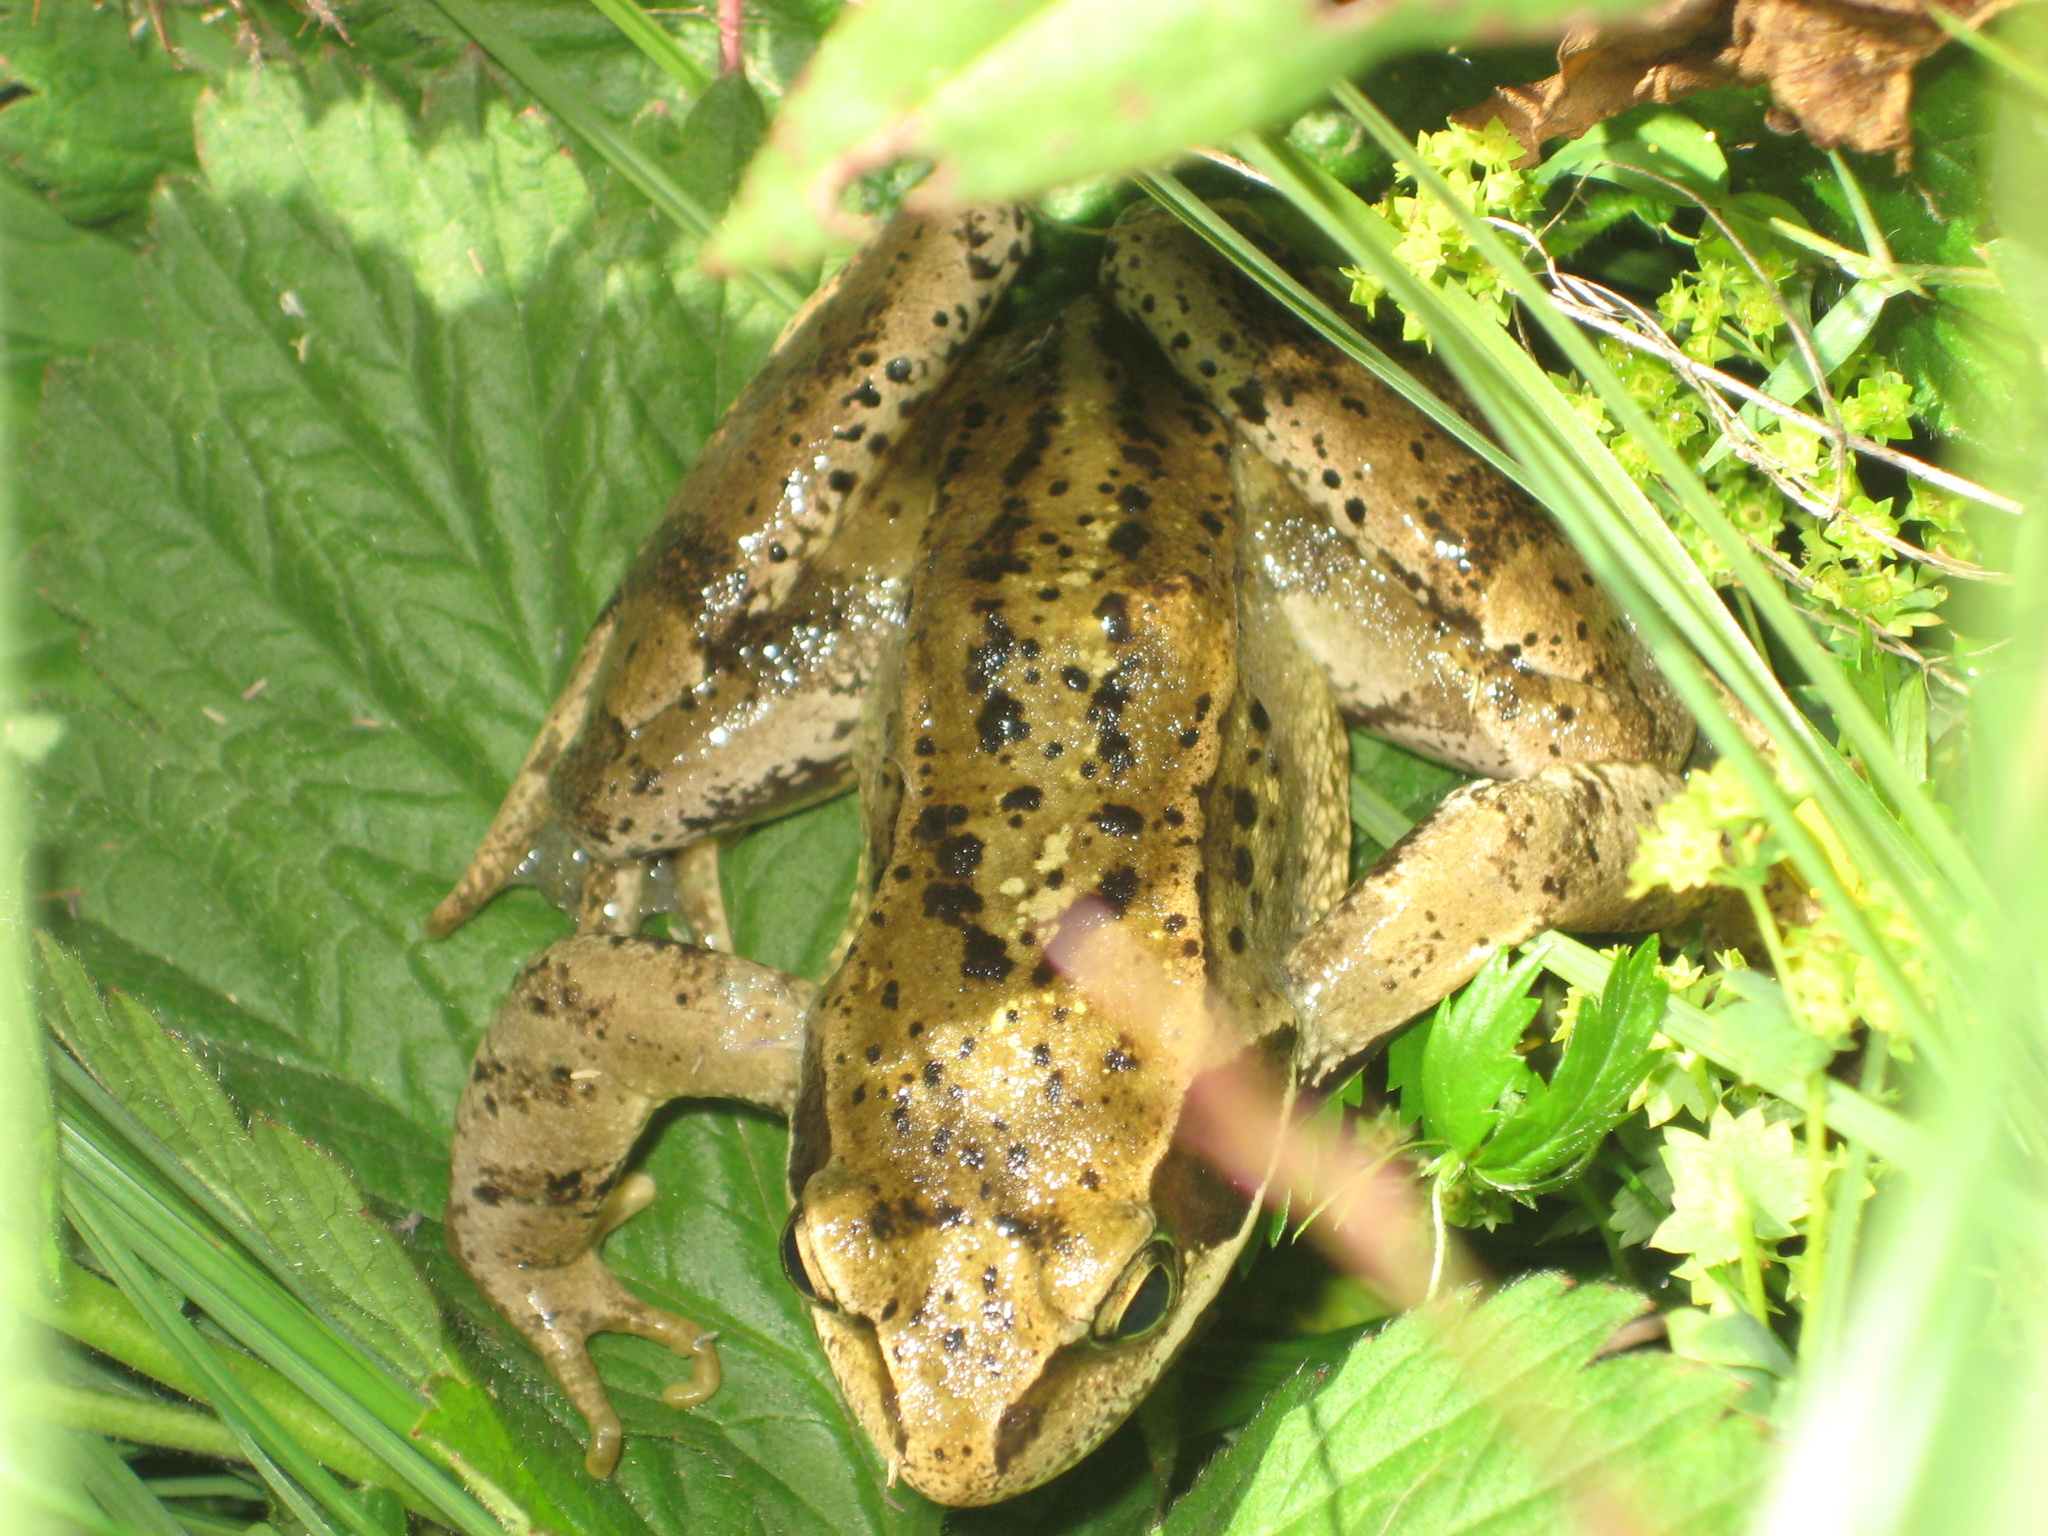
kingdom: Animalia
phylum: Chordata
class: Amphibia
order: Anura
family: Ranidae
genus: Rana
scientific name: Rana temporaria
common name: Common frog
